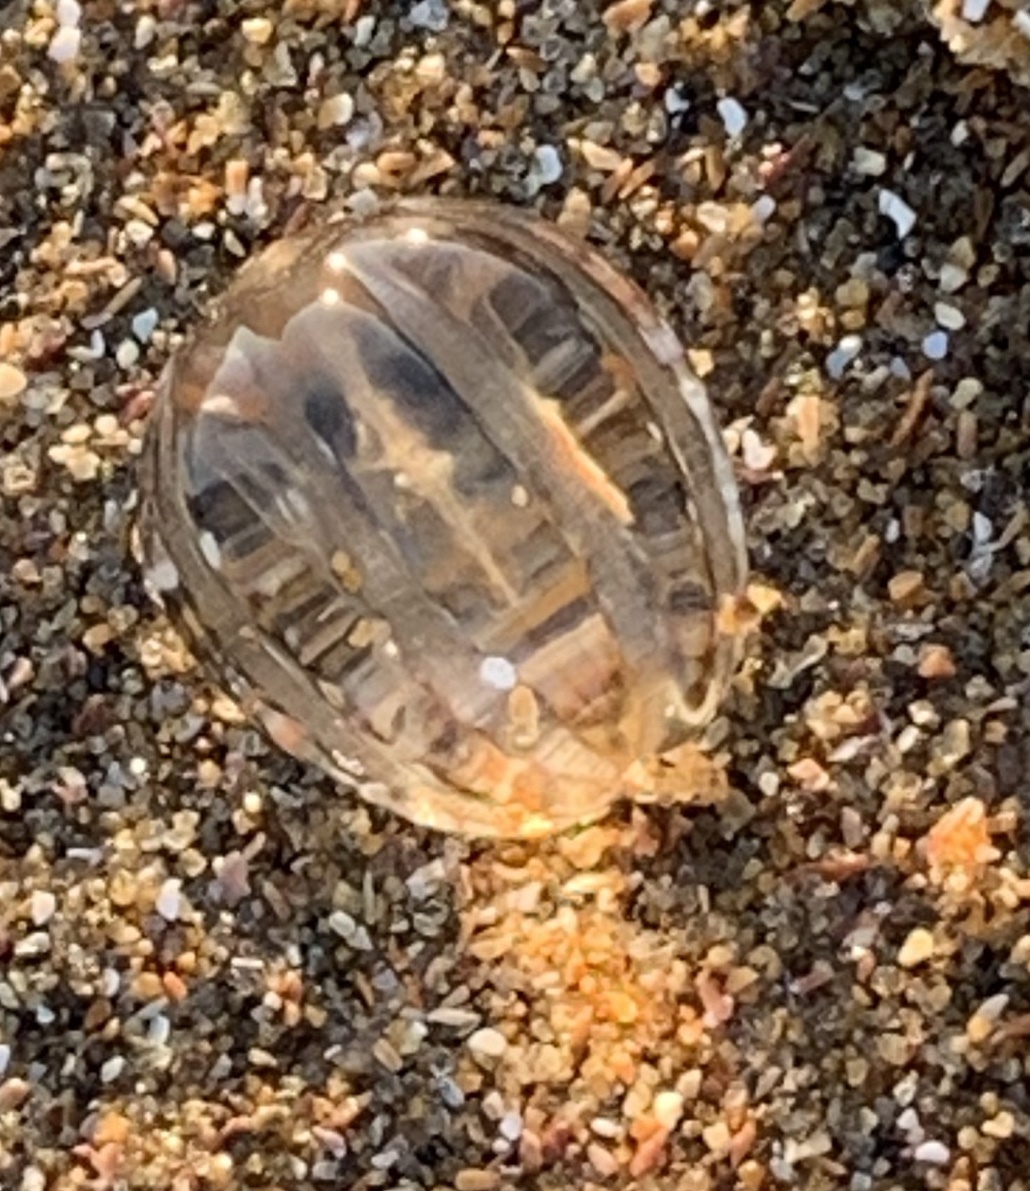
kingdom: Animalia
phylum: Ctenophora
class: Tentaculata
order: Cydippida
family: Pleurobrachiidae
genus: Pleurobrachia
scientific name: Pleurobrachia pileus
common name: Sea gooseberry
